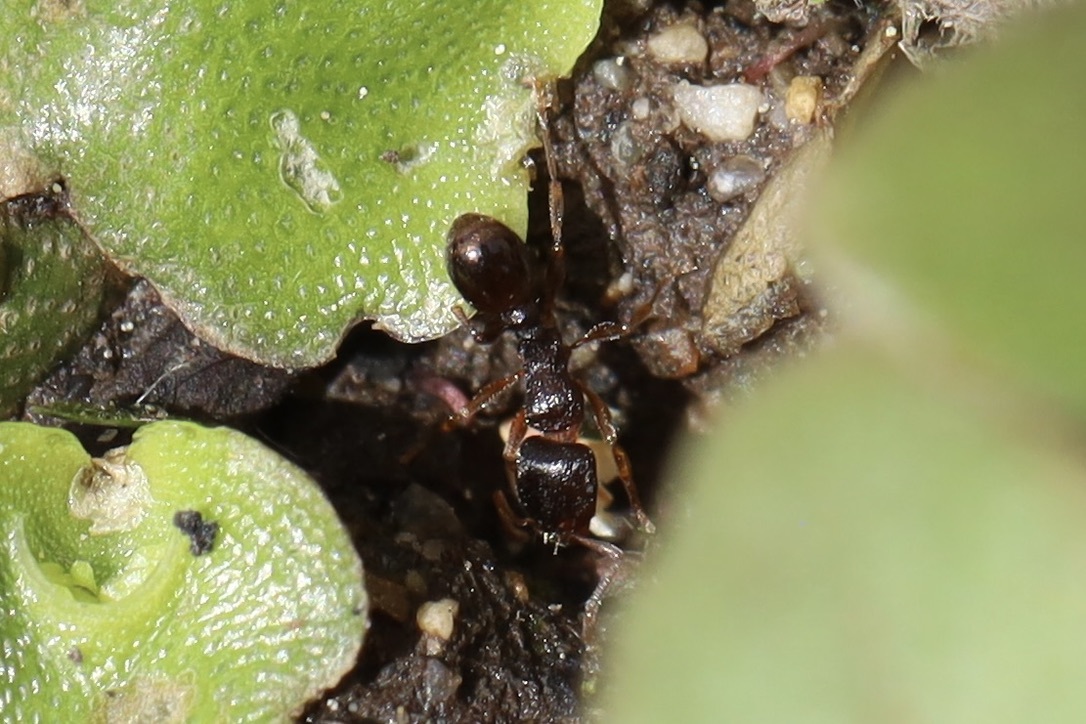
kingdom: Animalia
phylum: Arthropoda
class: Insecta
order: Hymenoptera
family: Formicidae
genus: Tetramorium
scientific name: Tetramorium immigrans
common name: Pavement ant
